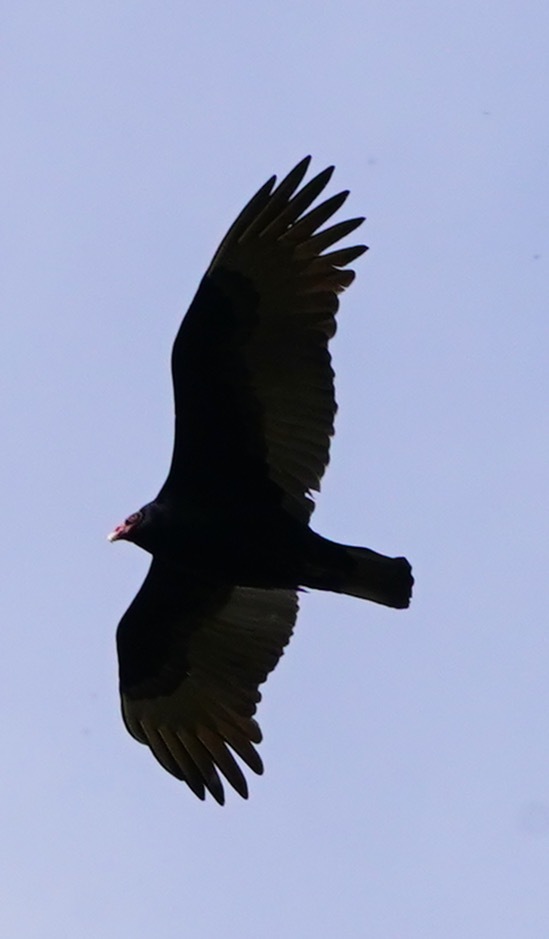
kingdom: Animalia
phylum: Chordata
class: Aves
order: Accipitriformes
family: Cathartidae
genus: Cathartes
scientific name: Cathartes aura
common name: Turkey vulture
